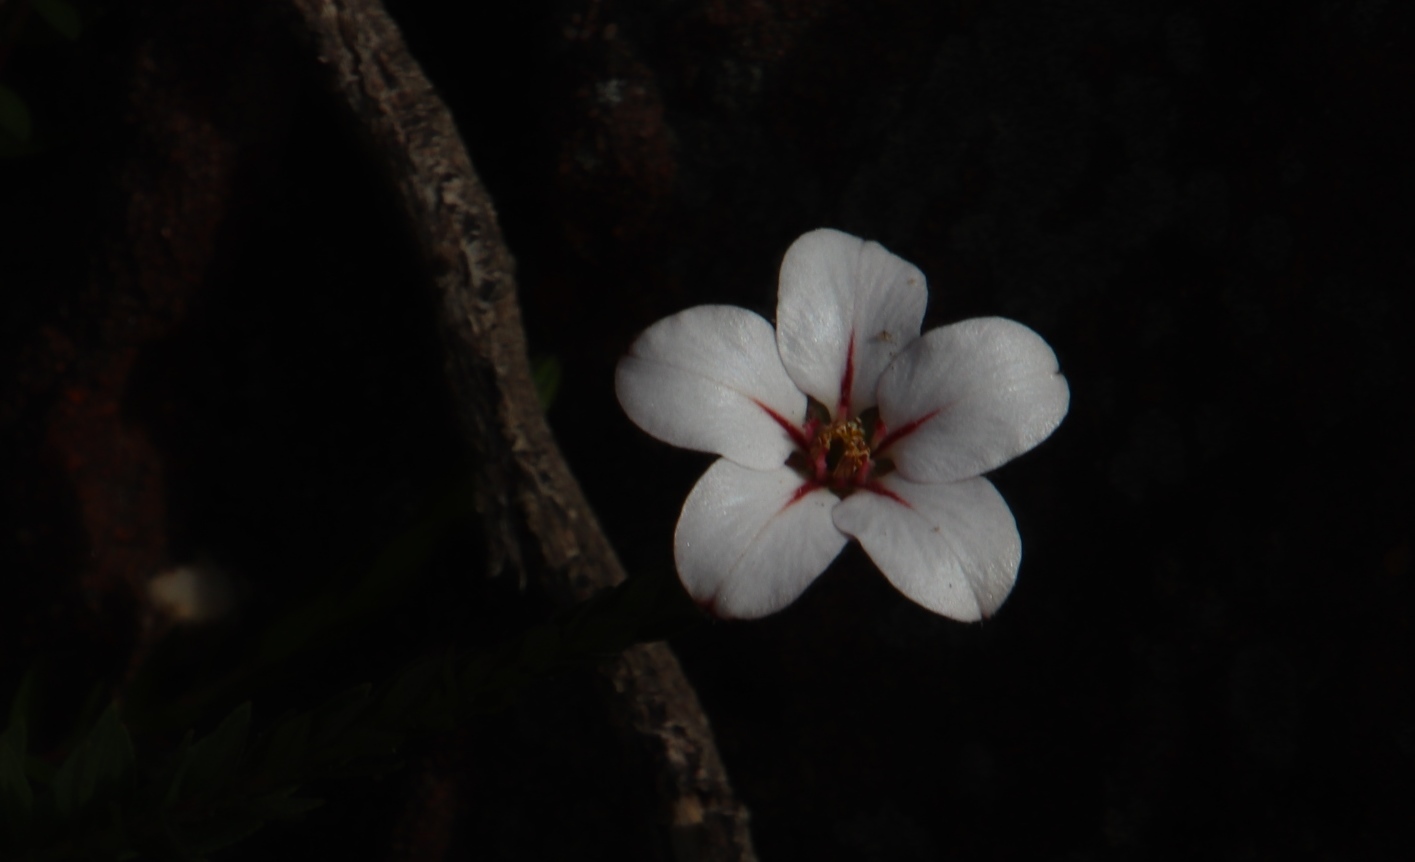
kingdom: Plantae
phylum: Tracheophyta
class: Magnoliopsida
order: Sapindales
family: Rutaceae
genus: Adenandra
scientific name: Adenandra villosa
